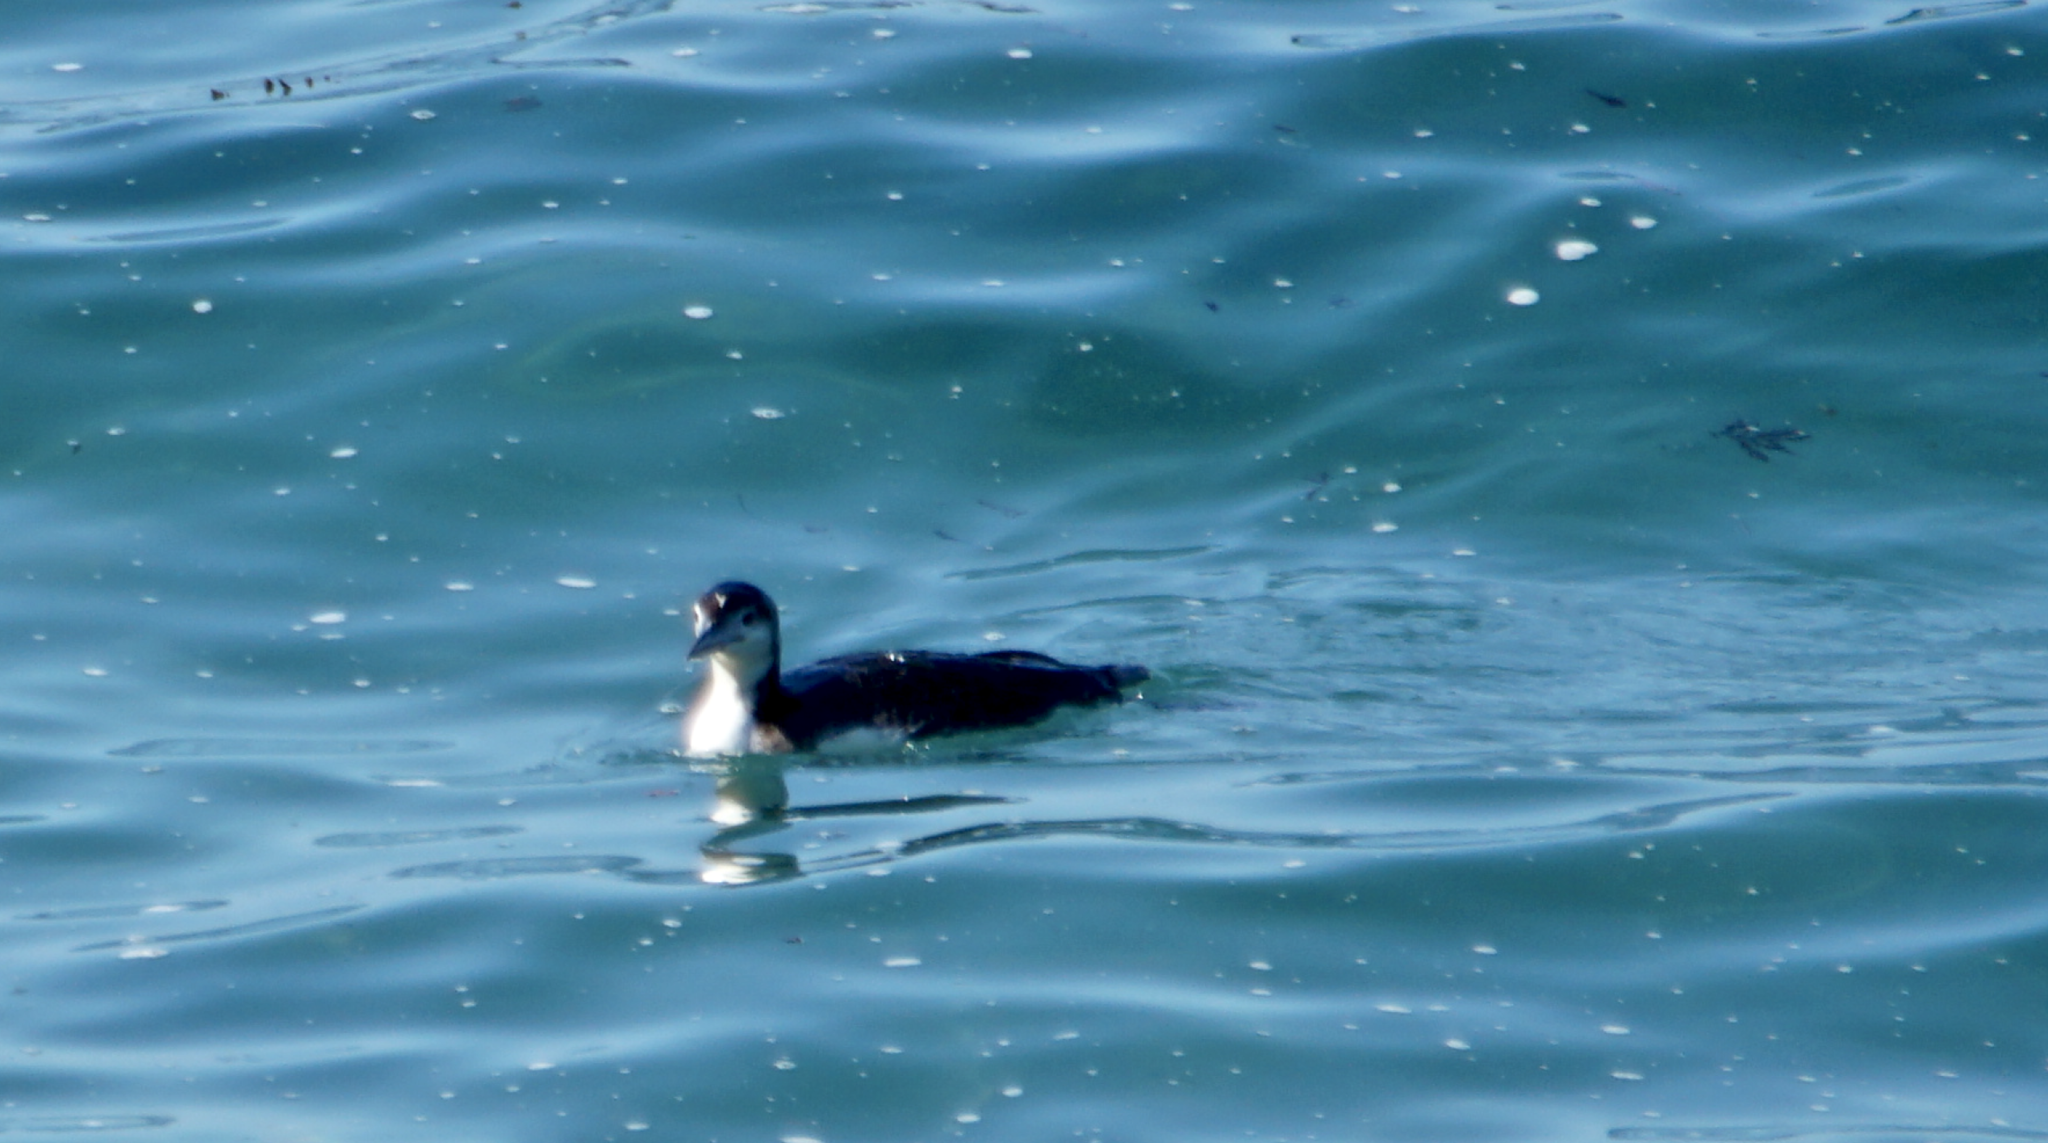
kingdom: Animalia
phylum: Chordata
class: Aves
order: Gaviiformes
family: Gaviidae
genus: Gavia
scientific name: Gavia immer
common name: Common loon
